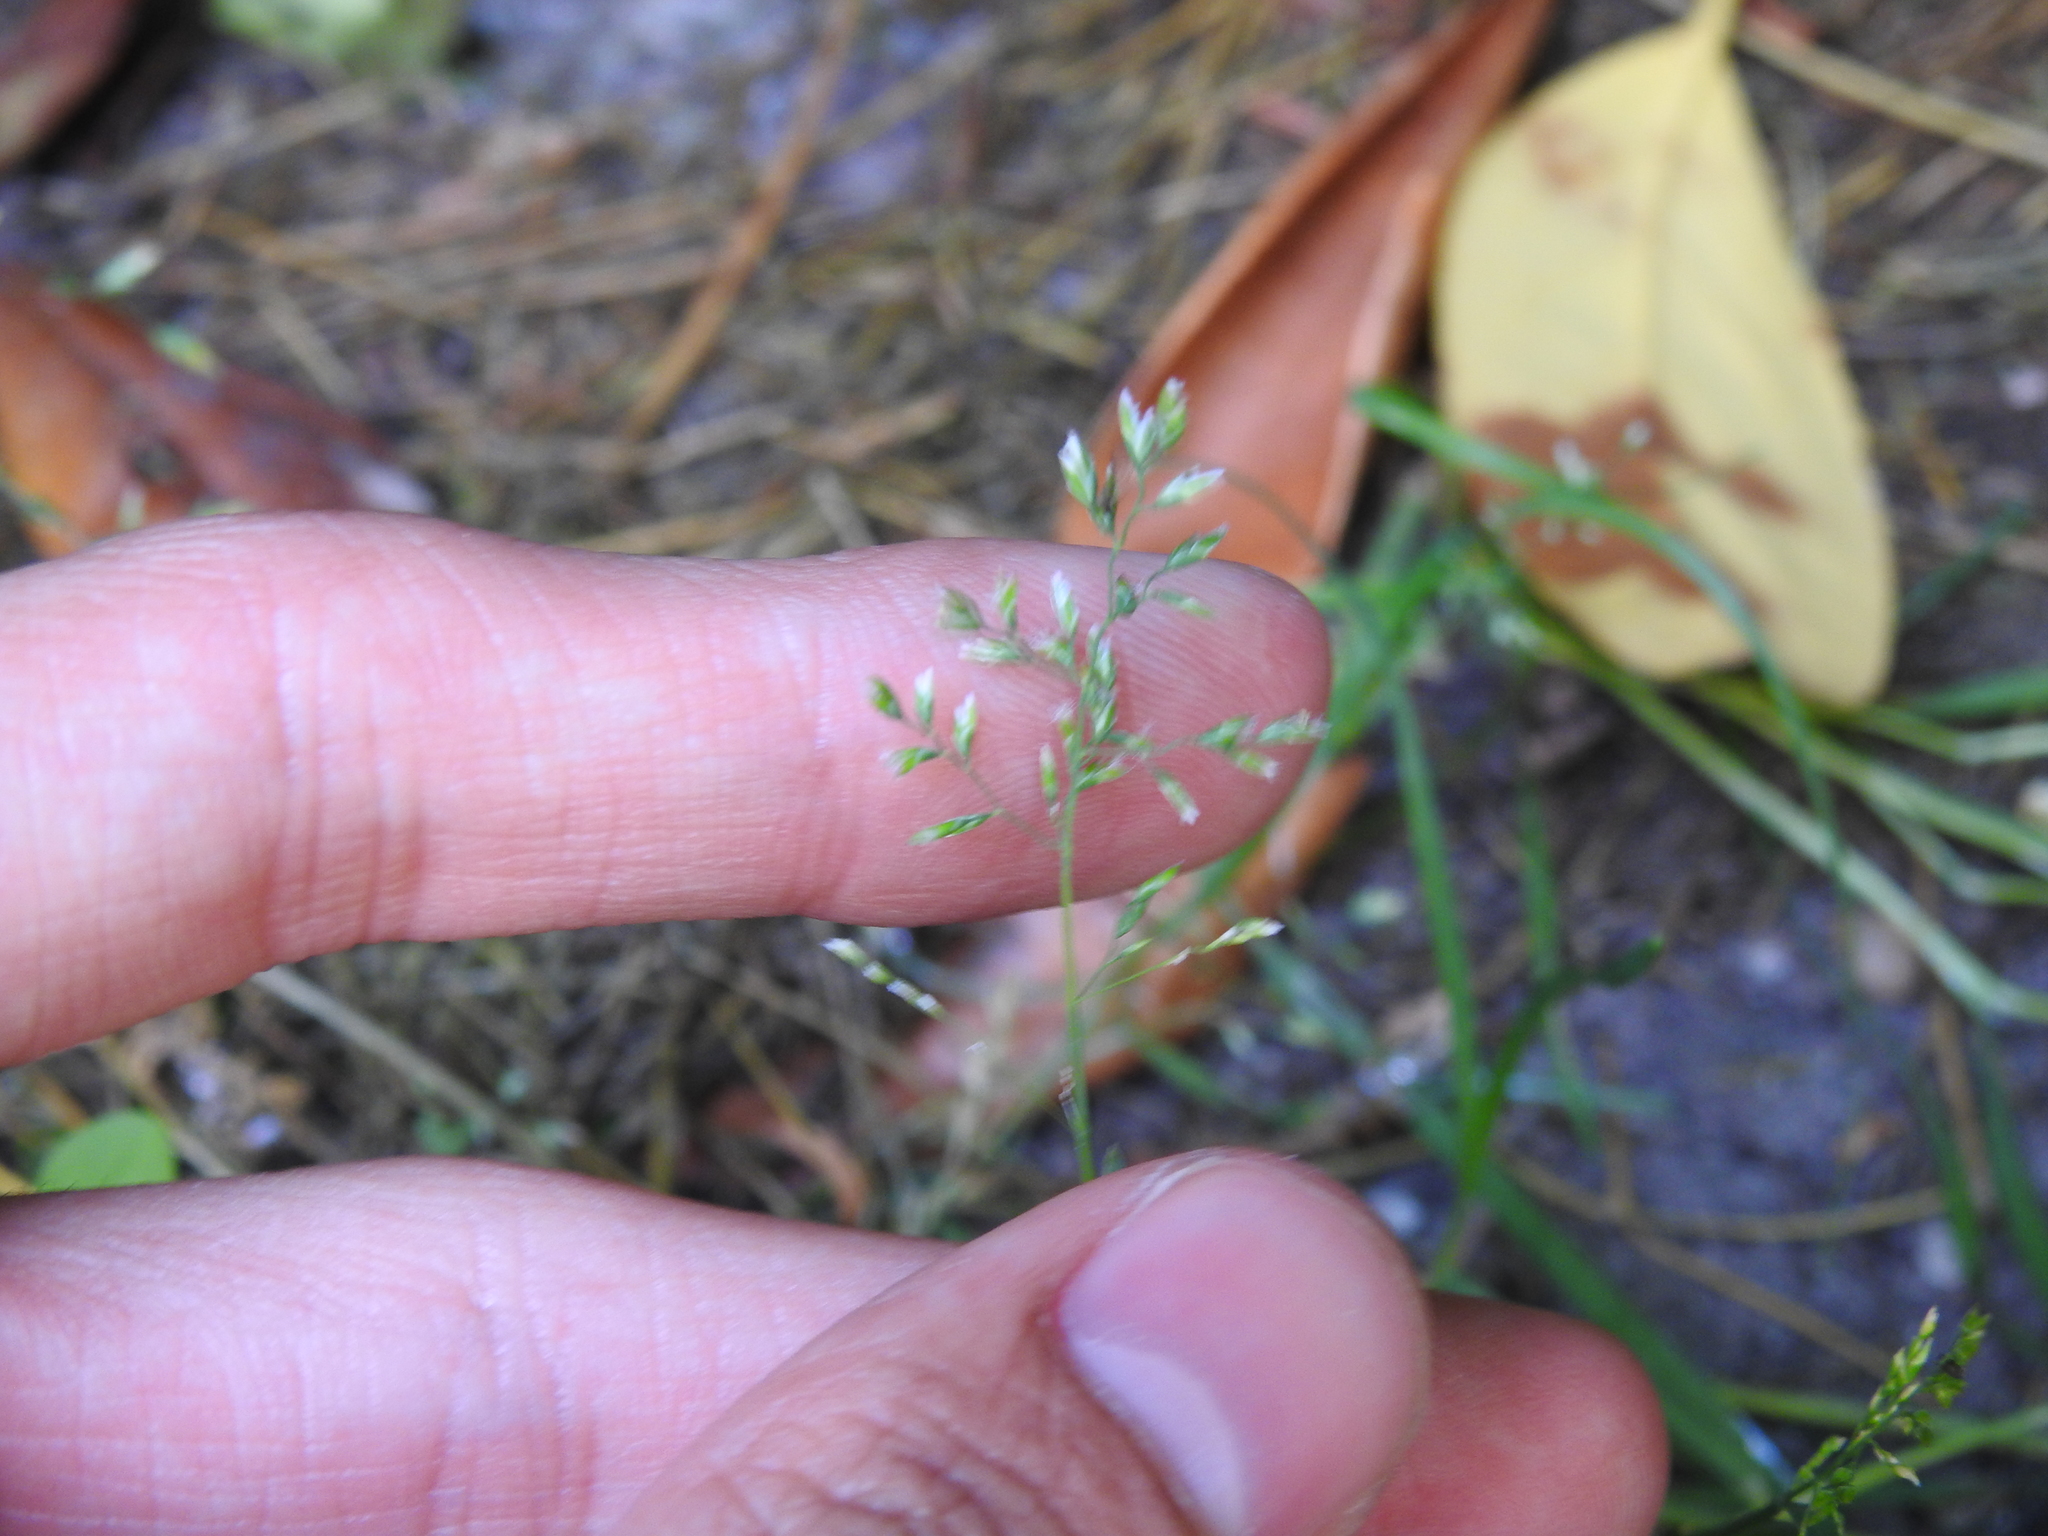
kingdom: Plantae
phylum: Tracheophyta
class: Liliopsida
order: Poales
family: Poaceae
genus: Poa
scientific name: Poa annua
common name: Annual bluegrass
